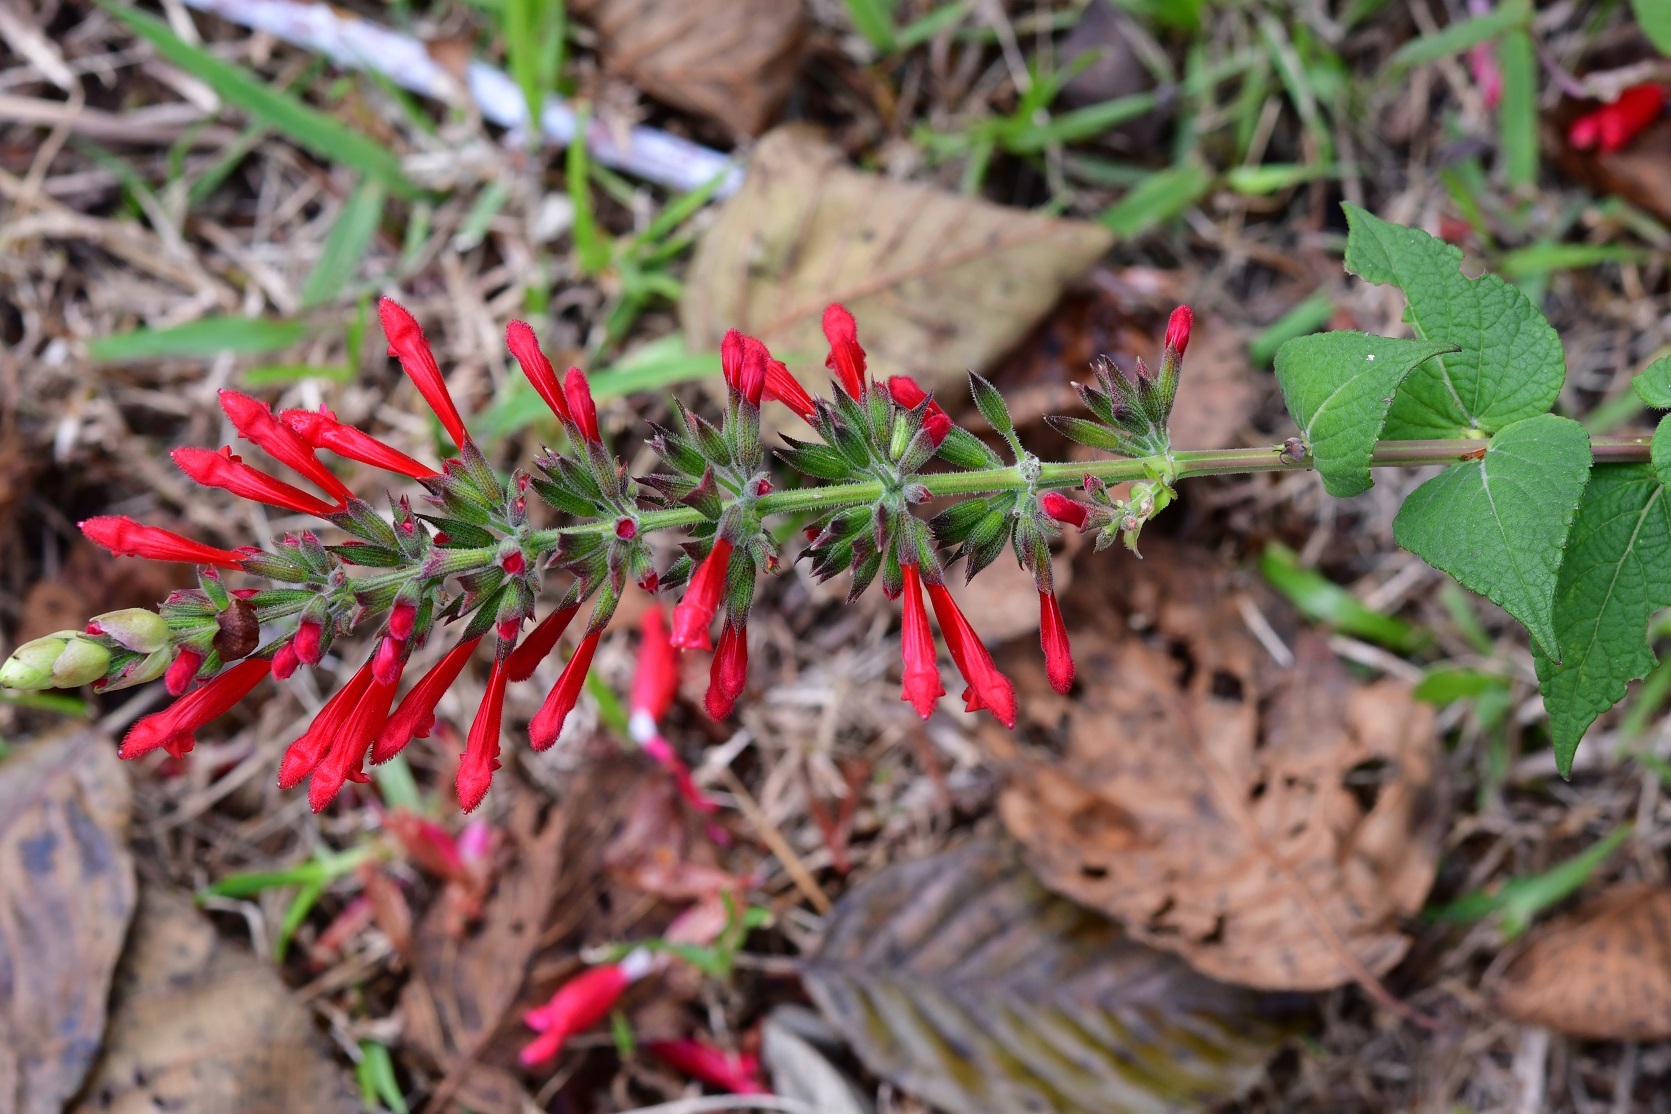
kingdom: Plantae
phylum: Tracheophyta
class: Magnoliopsida
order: Lamiales
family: Lamiaceae
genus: Salvia
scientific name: Salvia holwayi
